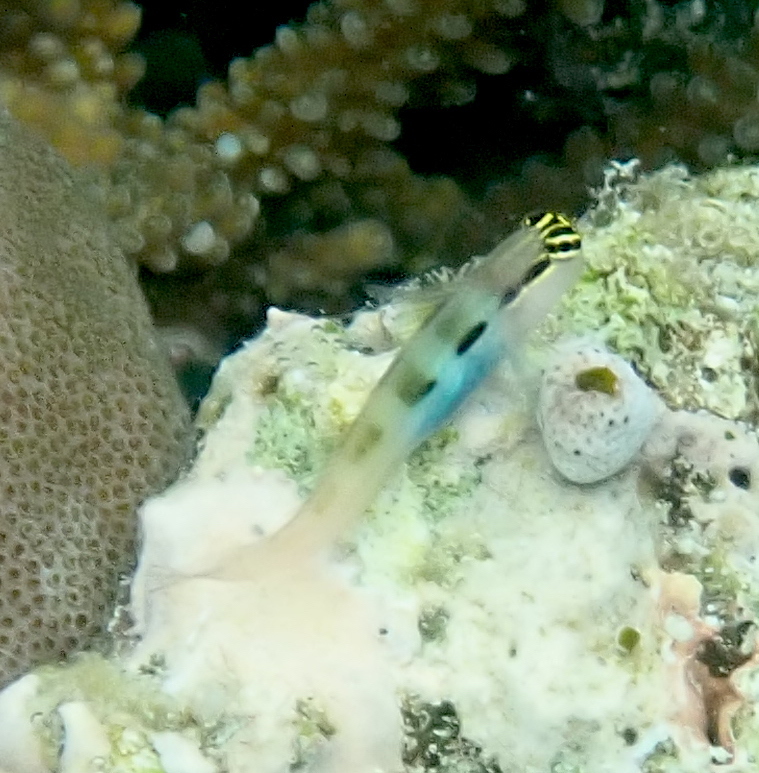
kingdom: Animalia
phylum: Chordata
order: Perciformes
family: Blenniidae
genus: Ecsenius
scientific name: Ecsenius bandanus
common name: Banda clown blenny
